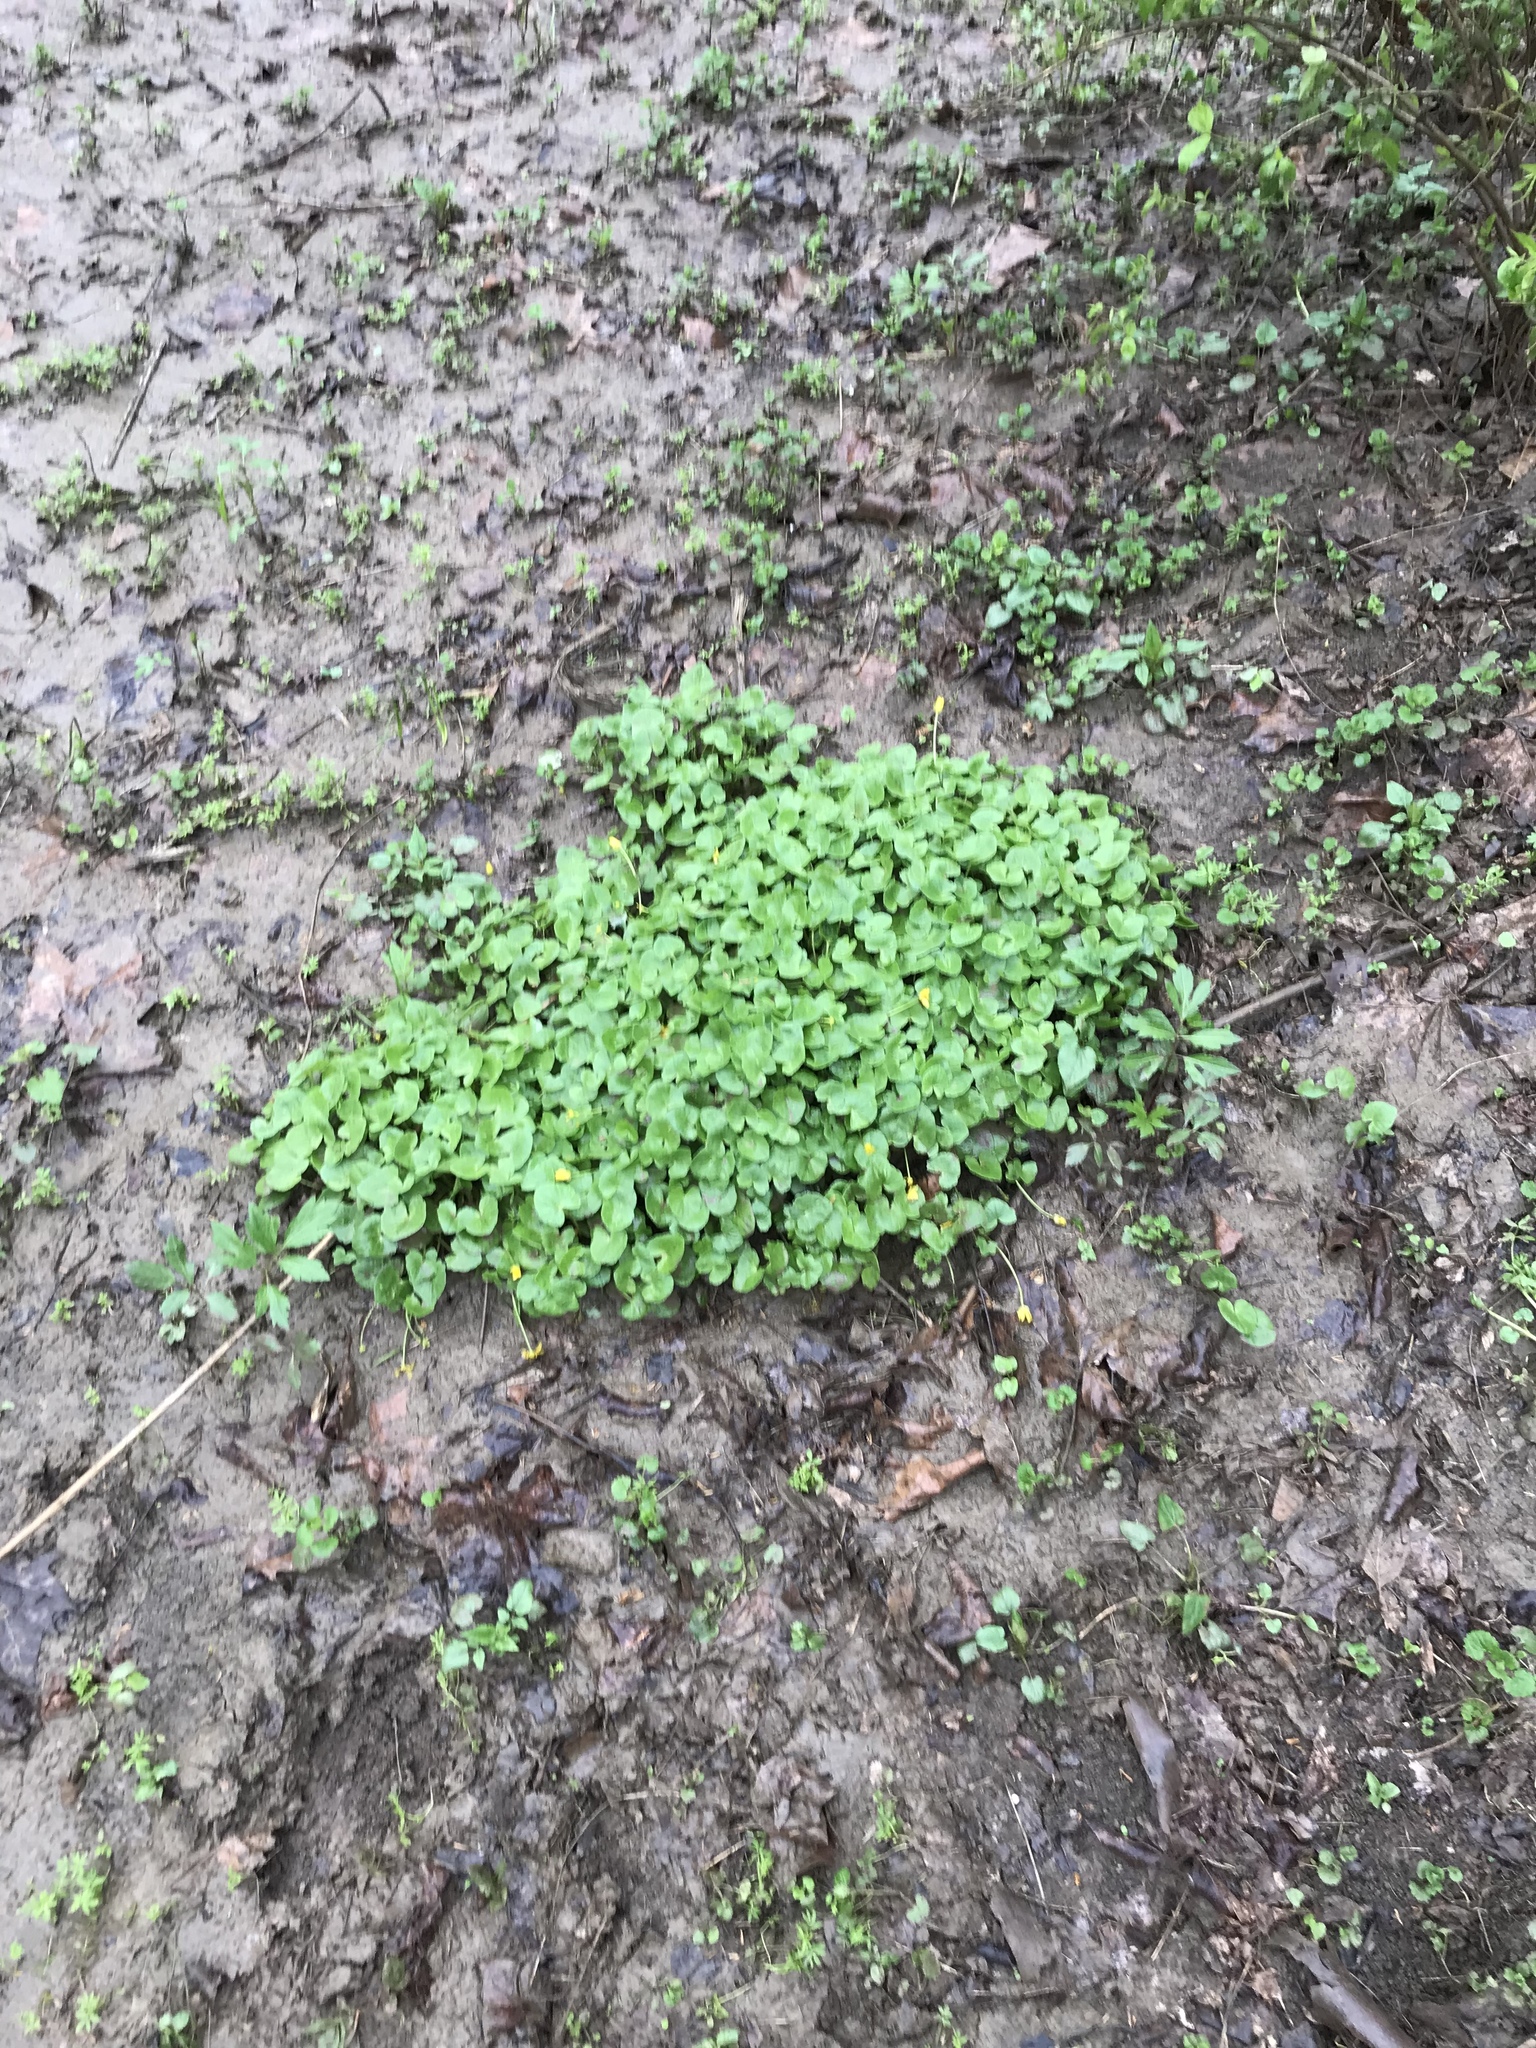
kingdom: Plantae
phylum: Tracheophyta
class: Magnoliopsida
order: Ranunculales
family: Ranunculaceae
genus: Ficaria
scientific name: Ficaria verna
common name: Lesser celandine
